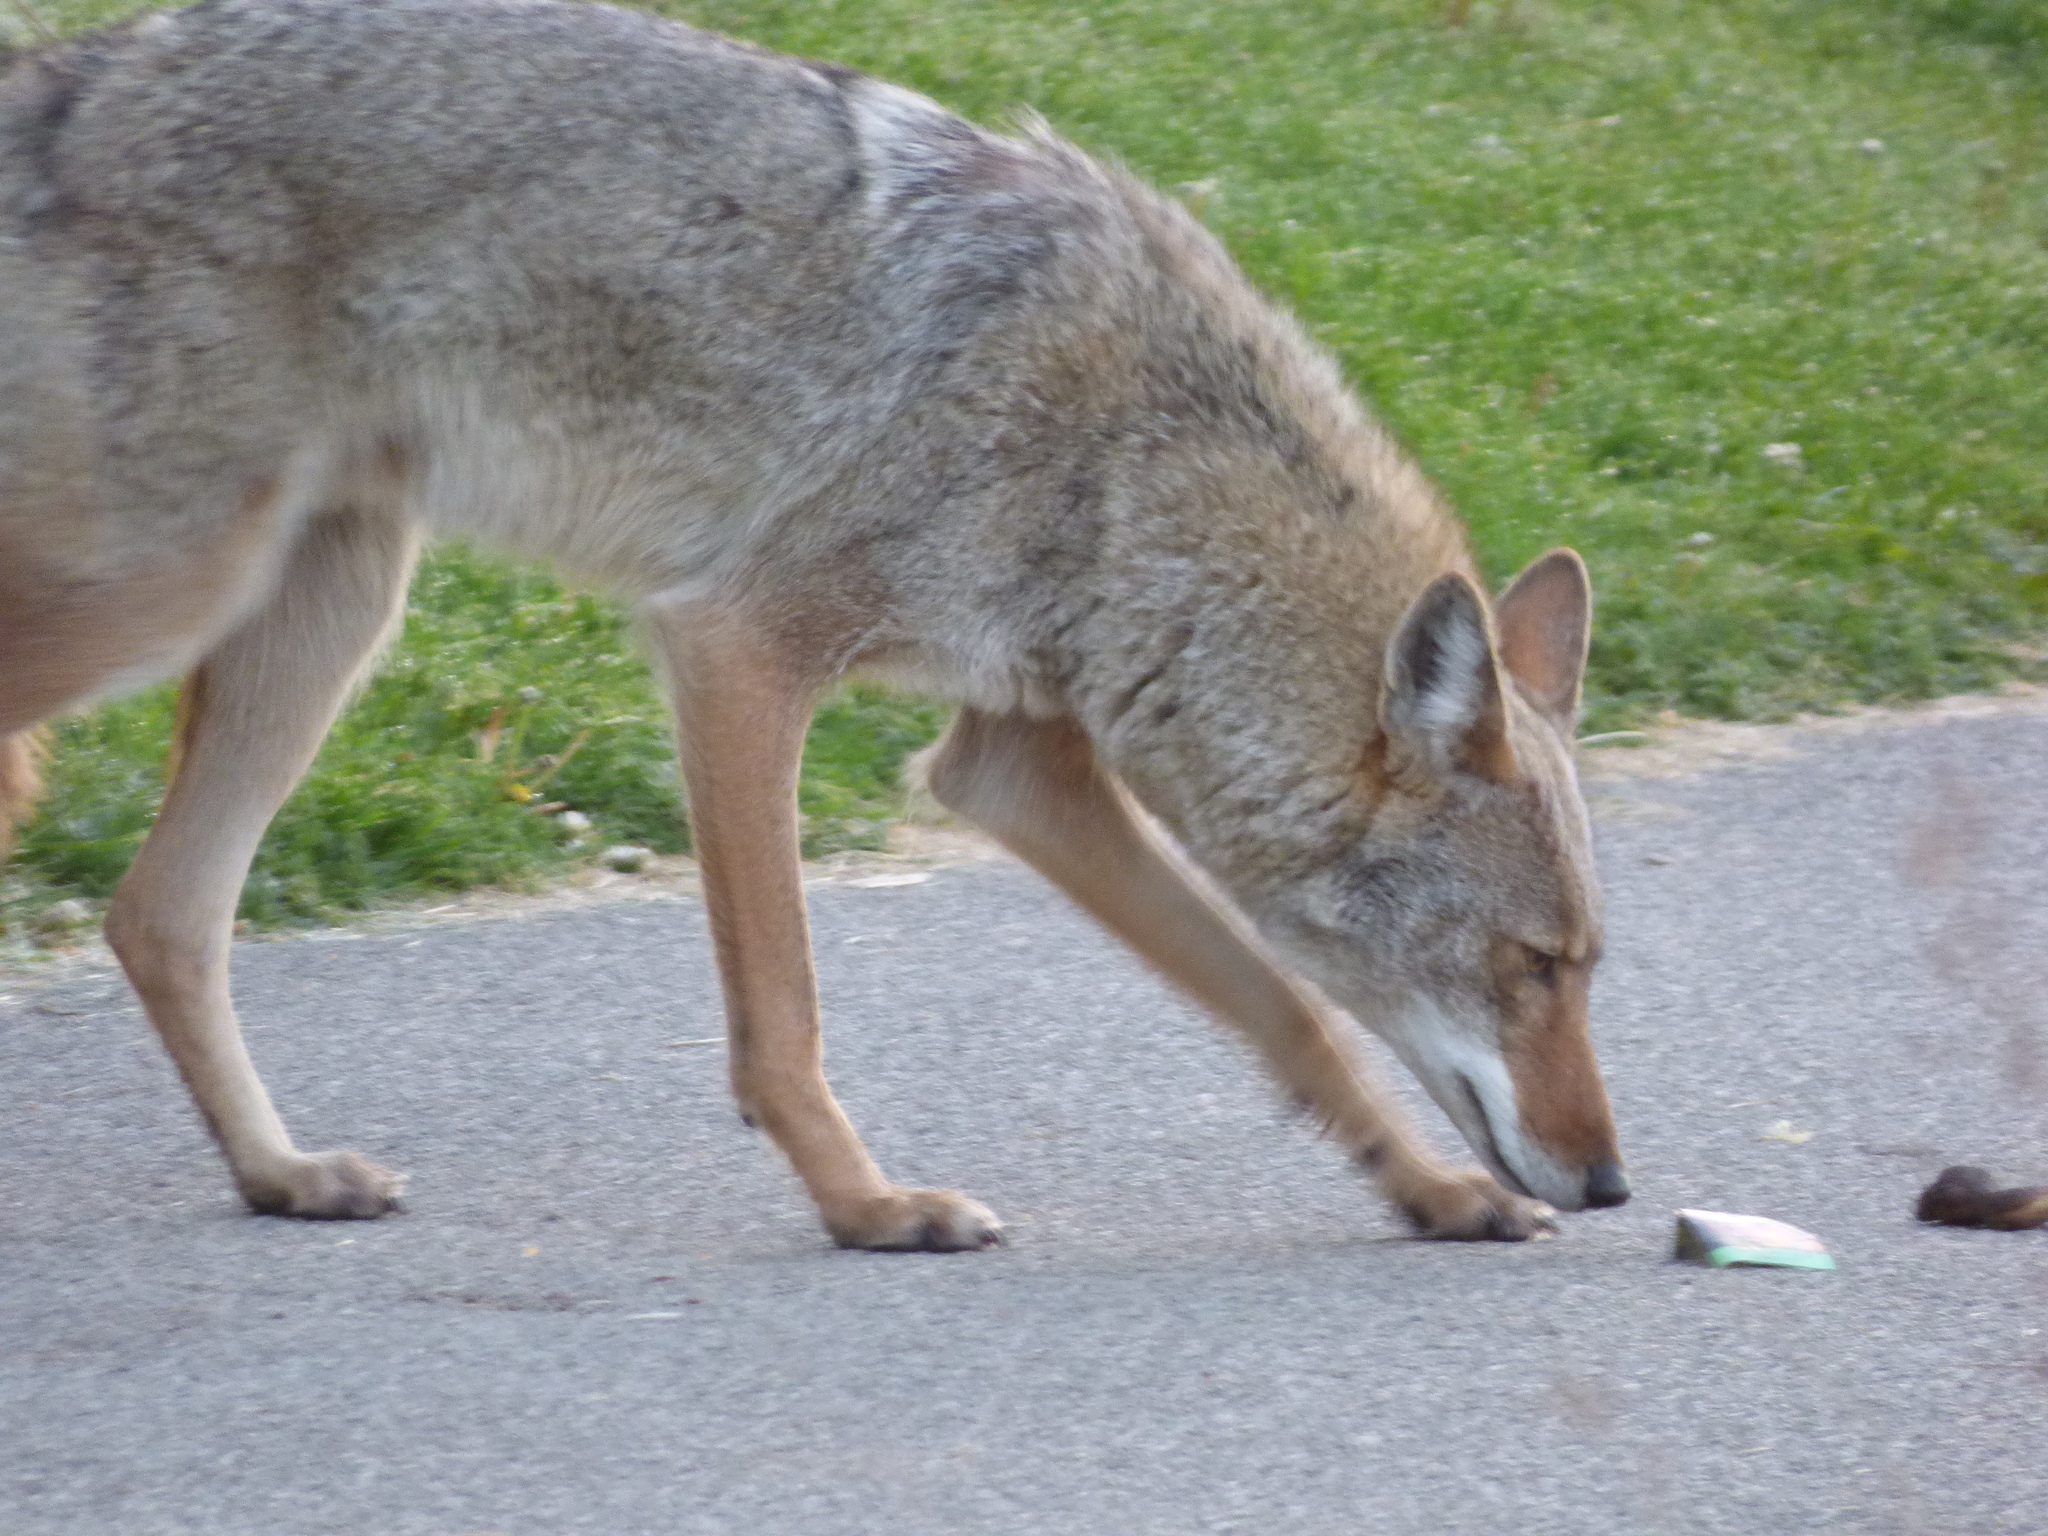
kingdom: Animalia
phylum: Chordata
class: Mammalia
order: Carnivora
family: Canidae
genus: Canis
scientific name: Canis latrans
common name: Coyote
